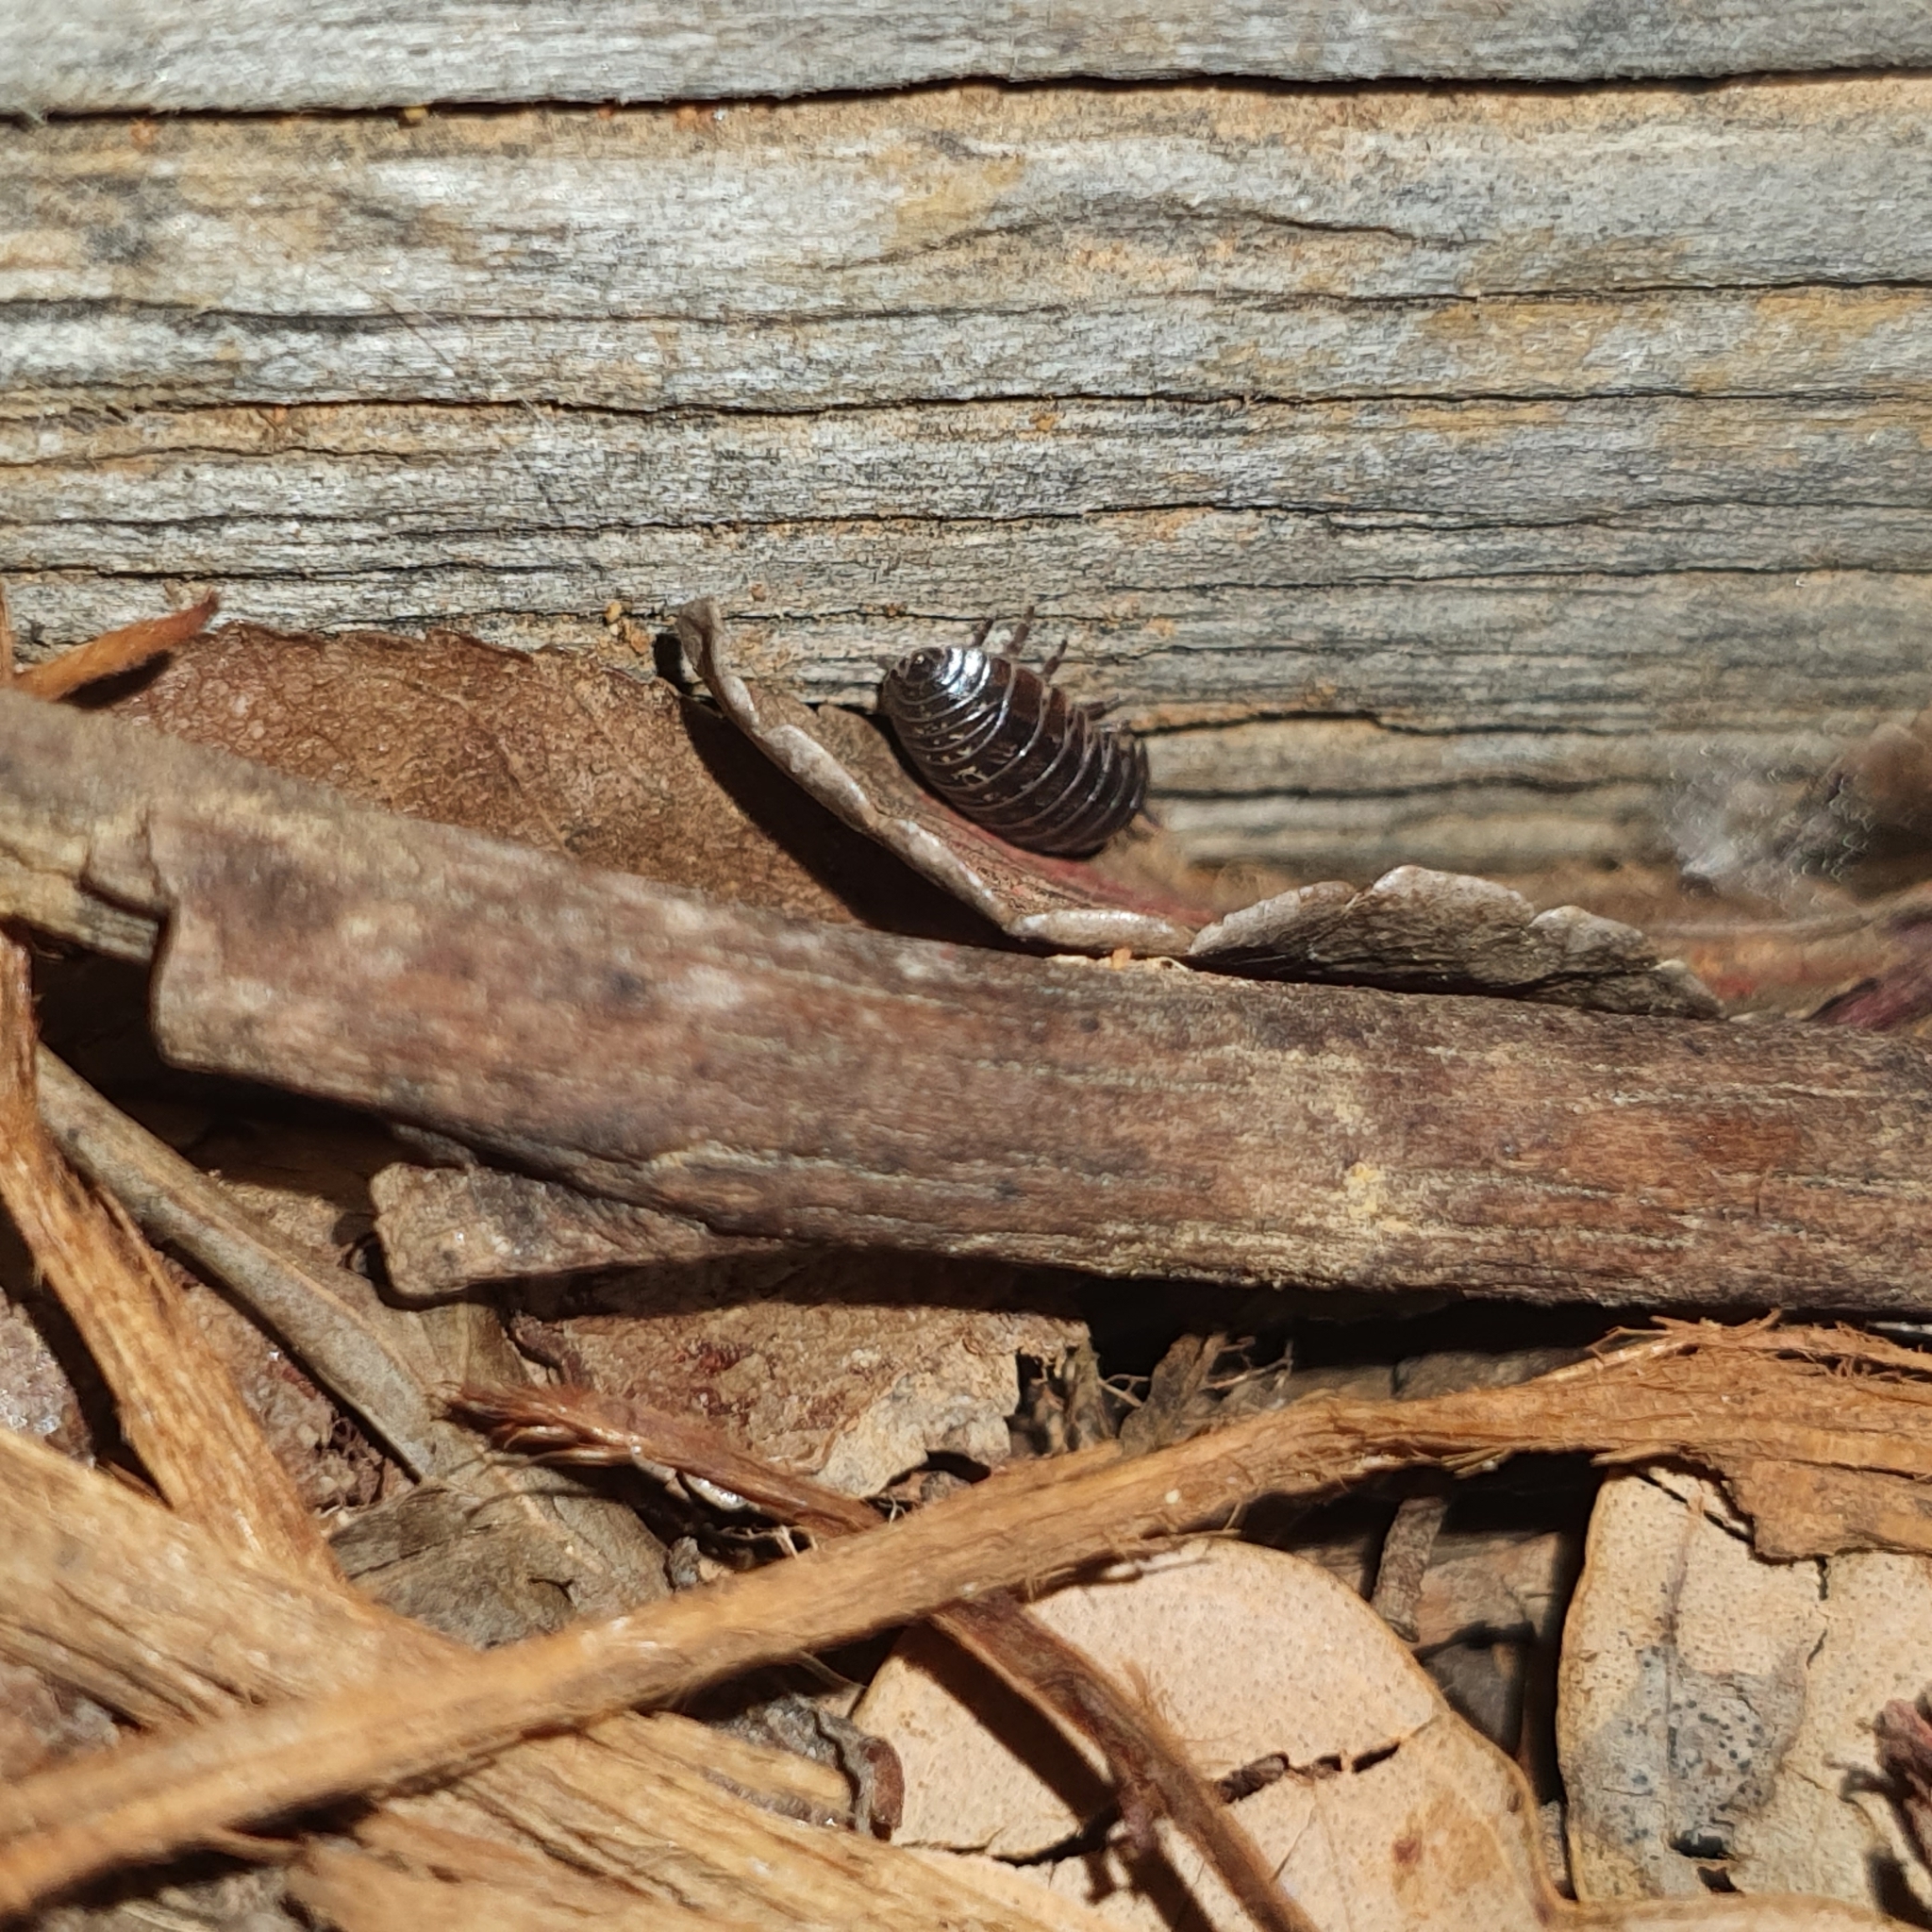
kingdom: Animalia
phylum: Arthropoda
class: Malacostraca
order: Isopoda
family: Armadillidiidae
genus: Armadillidium
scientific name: Armadillidium vulgare
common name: Common pill woodlouse
